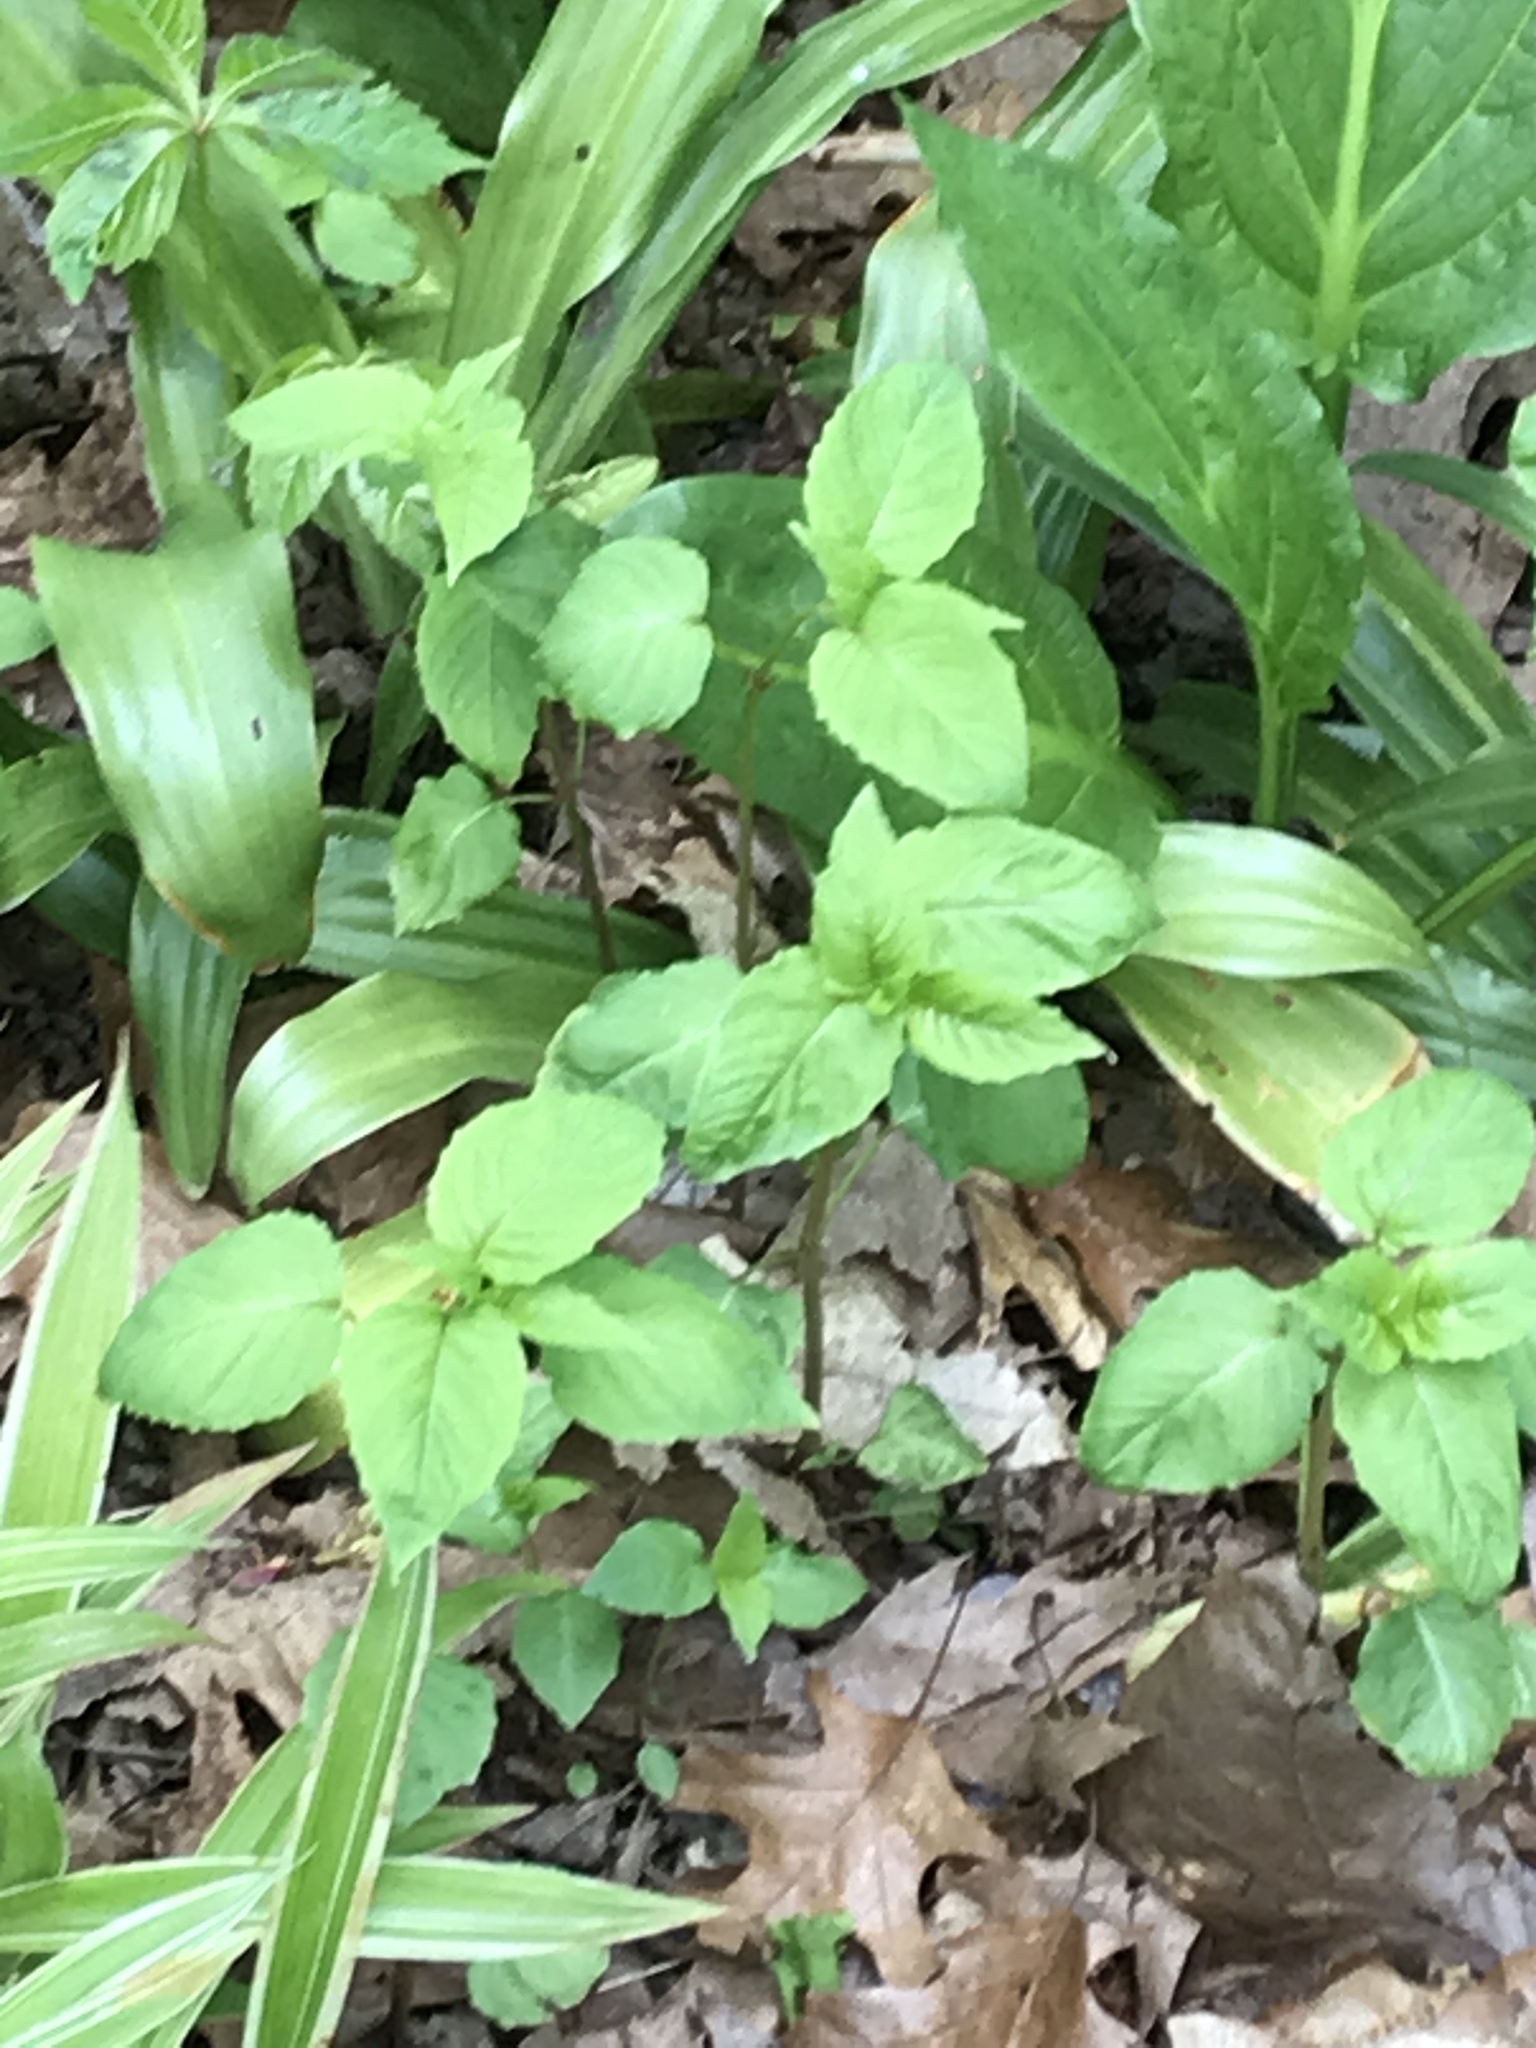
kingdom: Plantae
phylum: Tracheophyta
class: Magnoliopsida
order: Ericales
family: Balsaminaceae
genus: Impatiens
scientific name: Impatiens capensis
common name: Orange balsam
